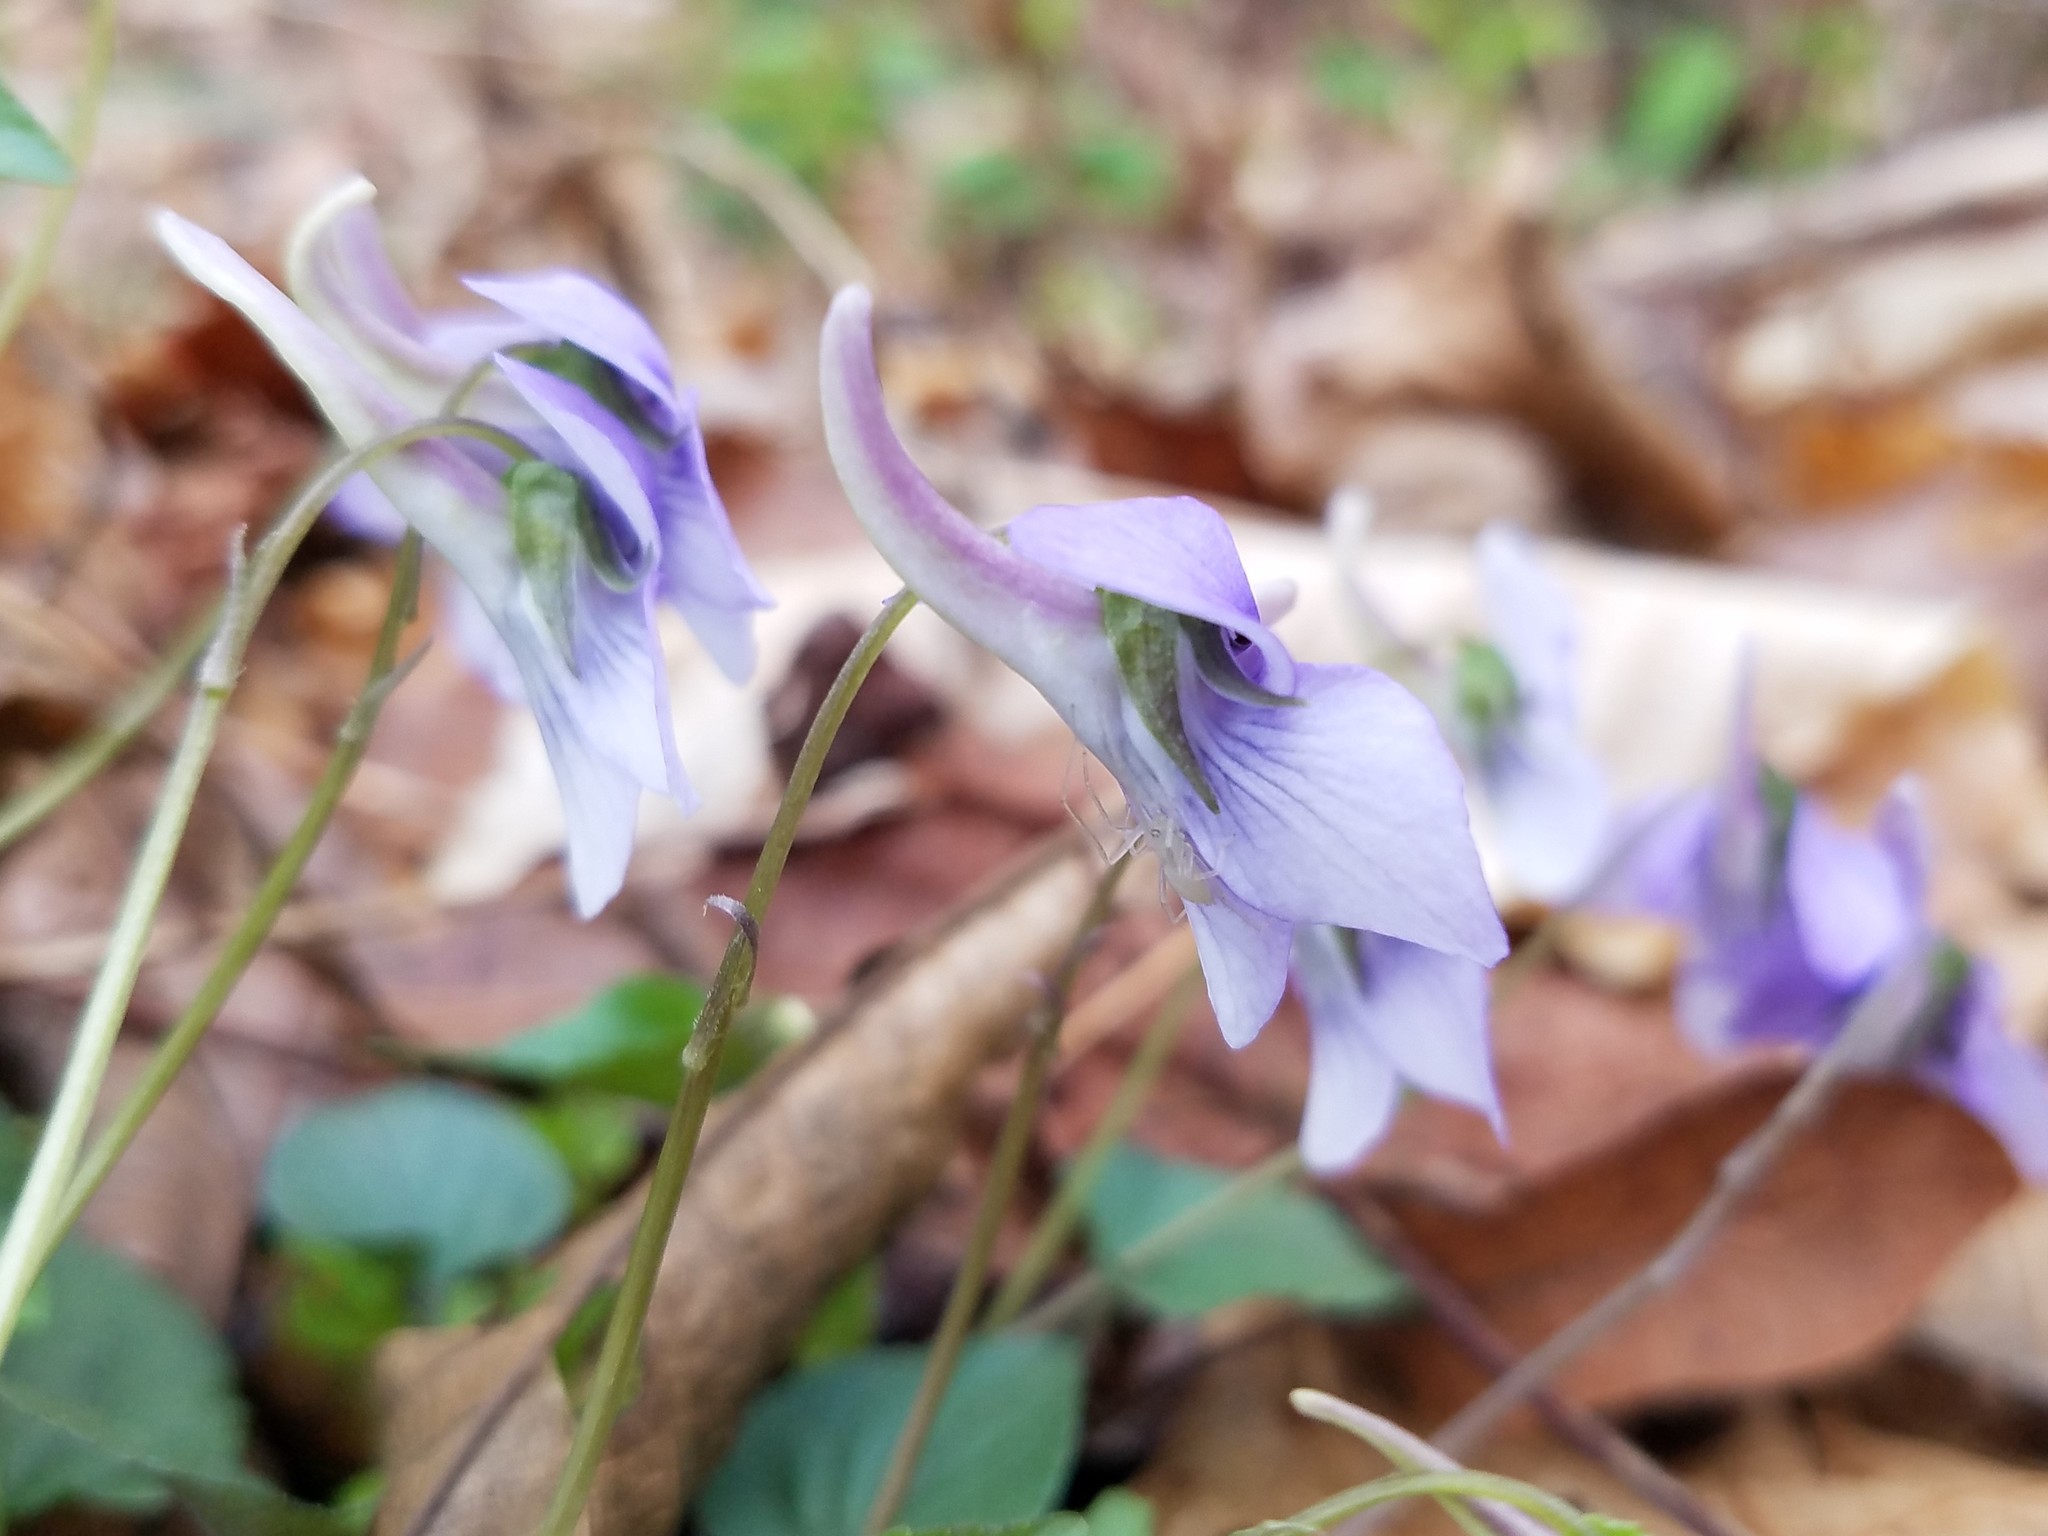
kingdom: Plantae
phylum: Tracheophyta
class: Magnoliopsida
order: Malpighiales
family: Violaceae
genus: Viola
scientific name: Viola rostrata
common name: Long-spur violet
